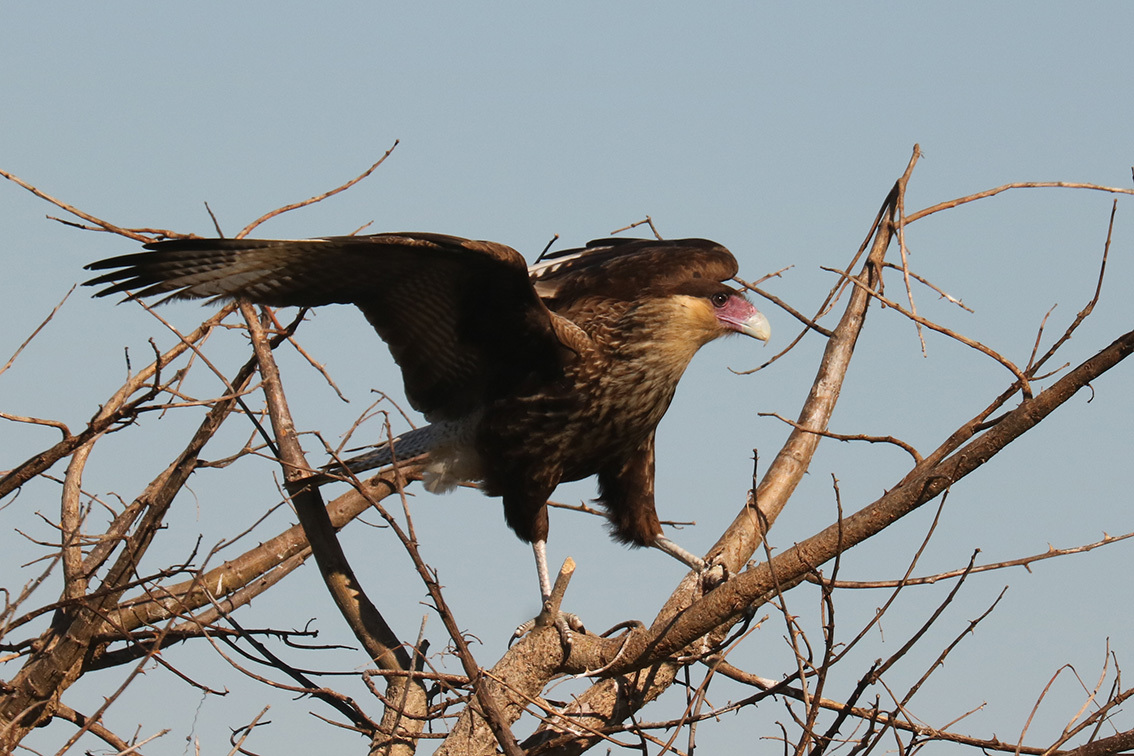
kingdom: Animalia
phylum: Chordata
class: Aves
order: Falconiformes
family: Falconidae
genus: Caracara
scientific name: Caracara plancus
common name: Southern caracara
